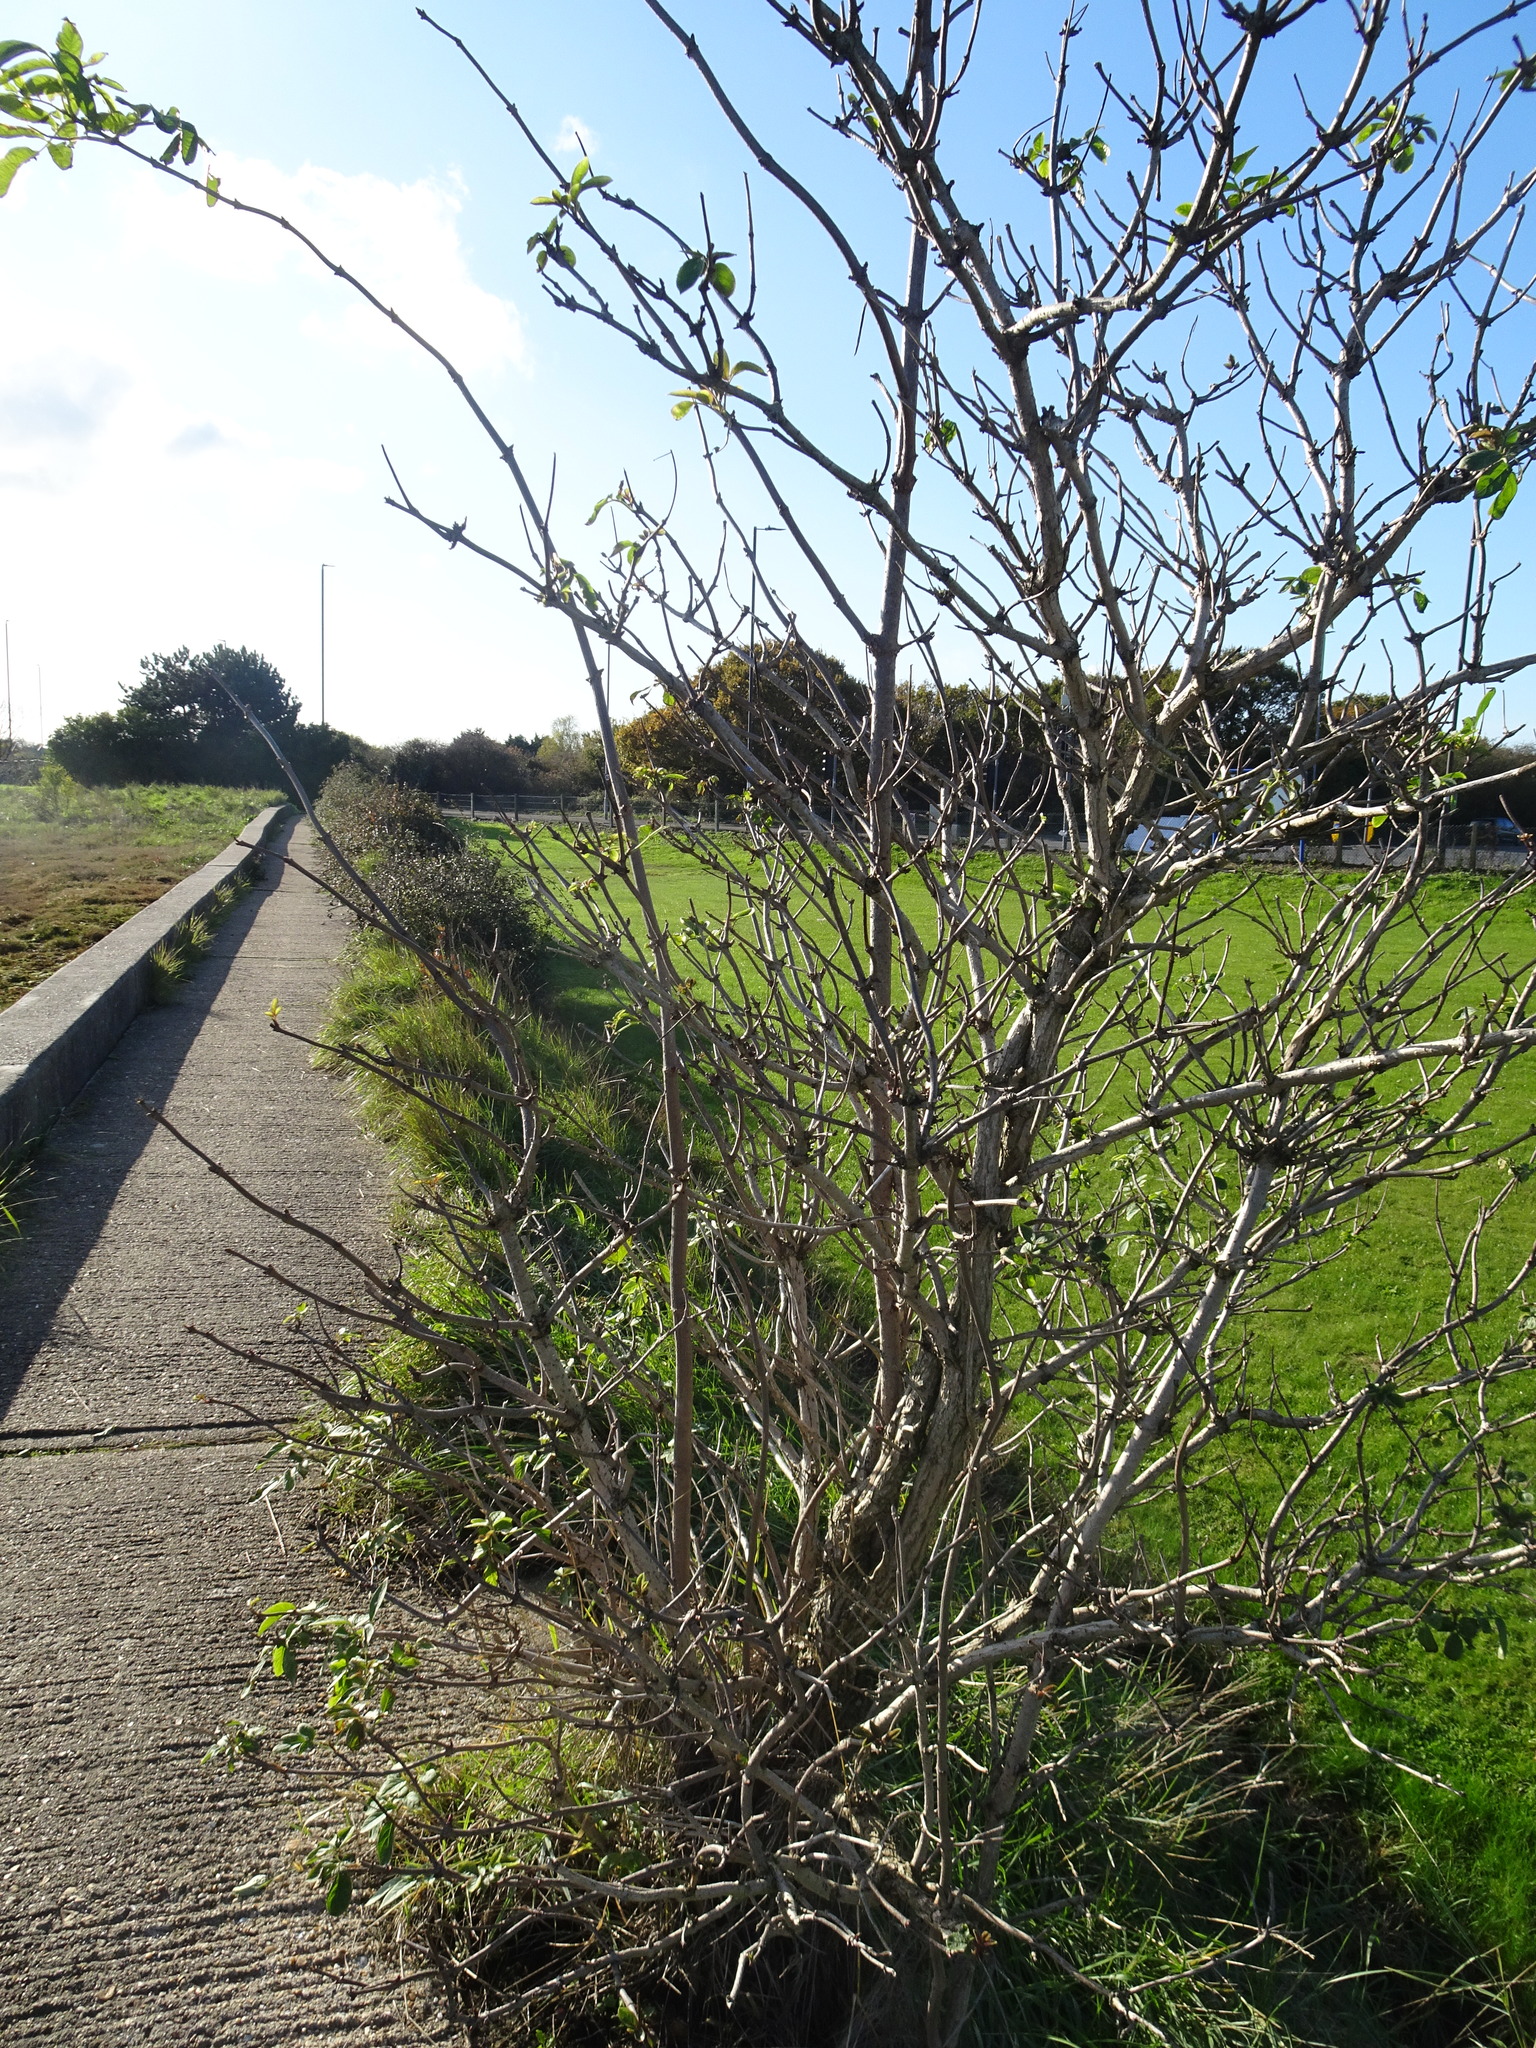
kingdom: Plantae
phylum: Tracheophyta
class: Magnoliopsida
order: Dipsacales
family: Viburnaceae
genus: Sambucus
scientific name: Sambucus nigra
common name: Elder
